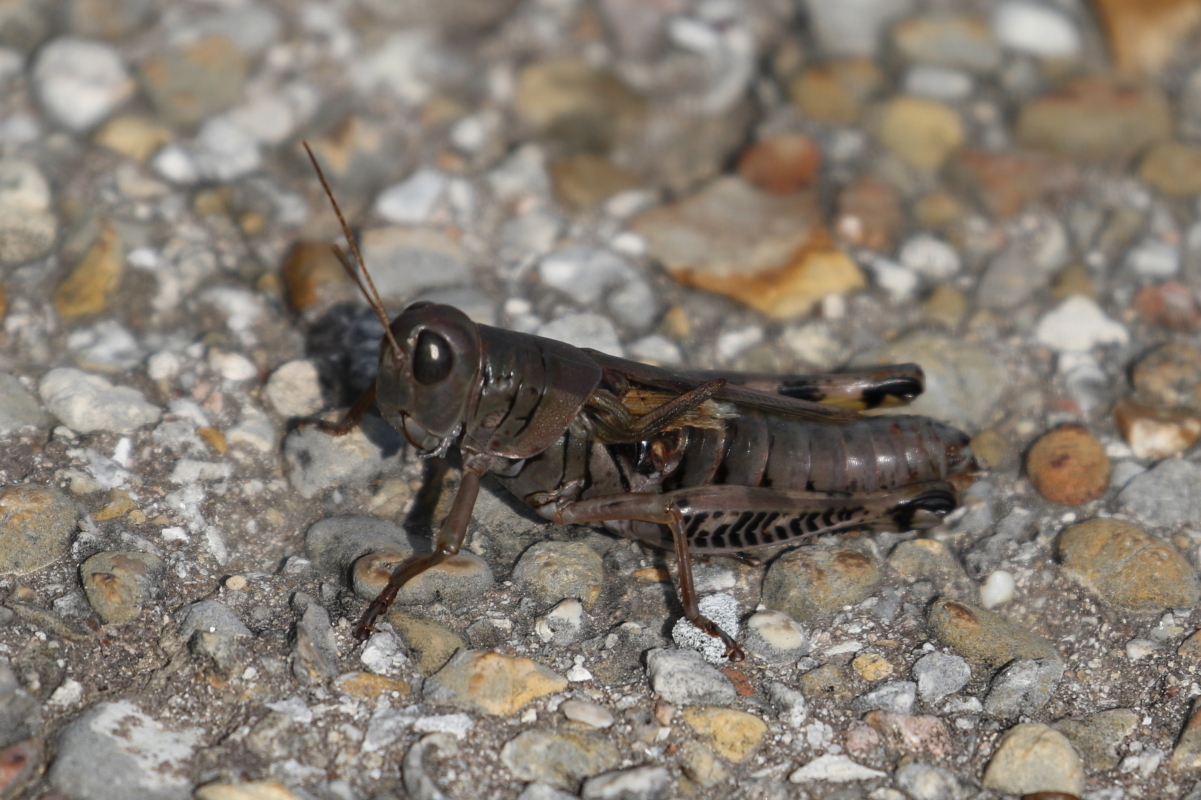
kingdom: Animalia
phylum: Arthropoda
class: Insecta
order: Orthoptera
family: Acrididae
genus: Melanoplus
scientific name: Melanoplus differentialis
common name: Differential grasshopper
